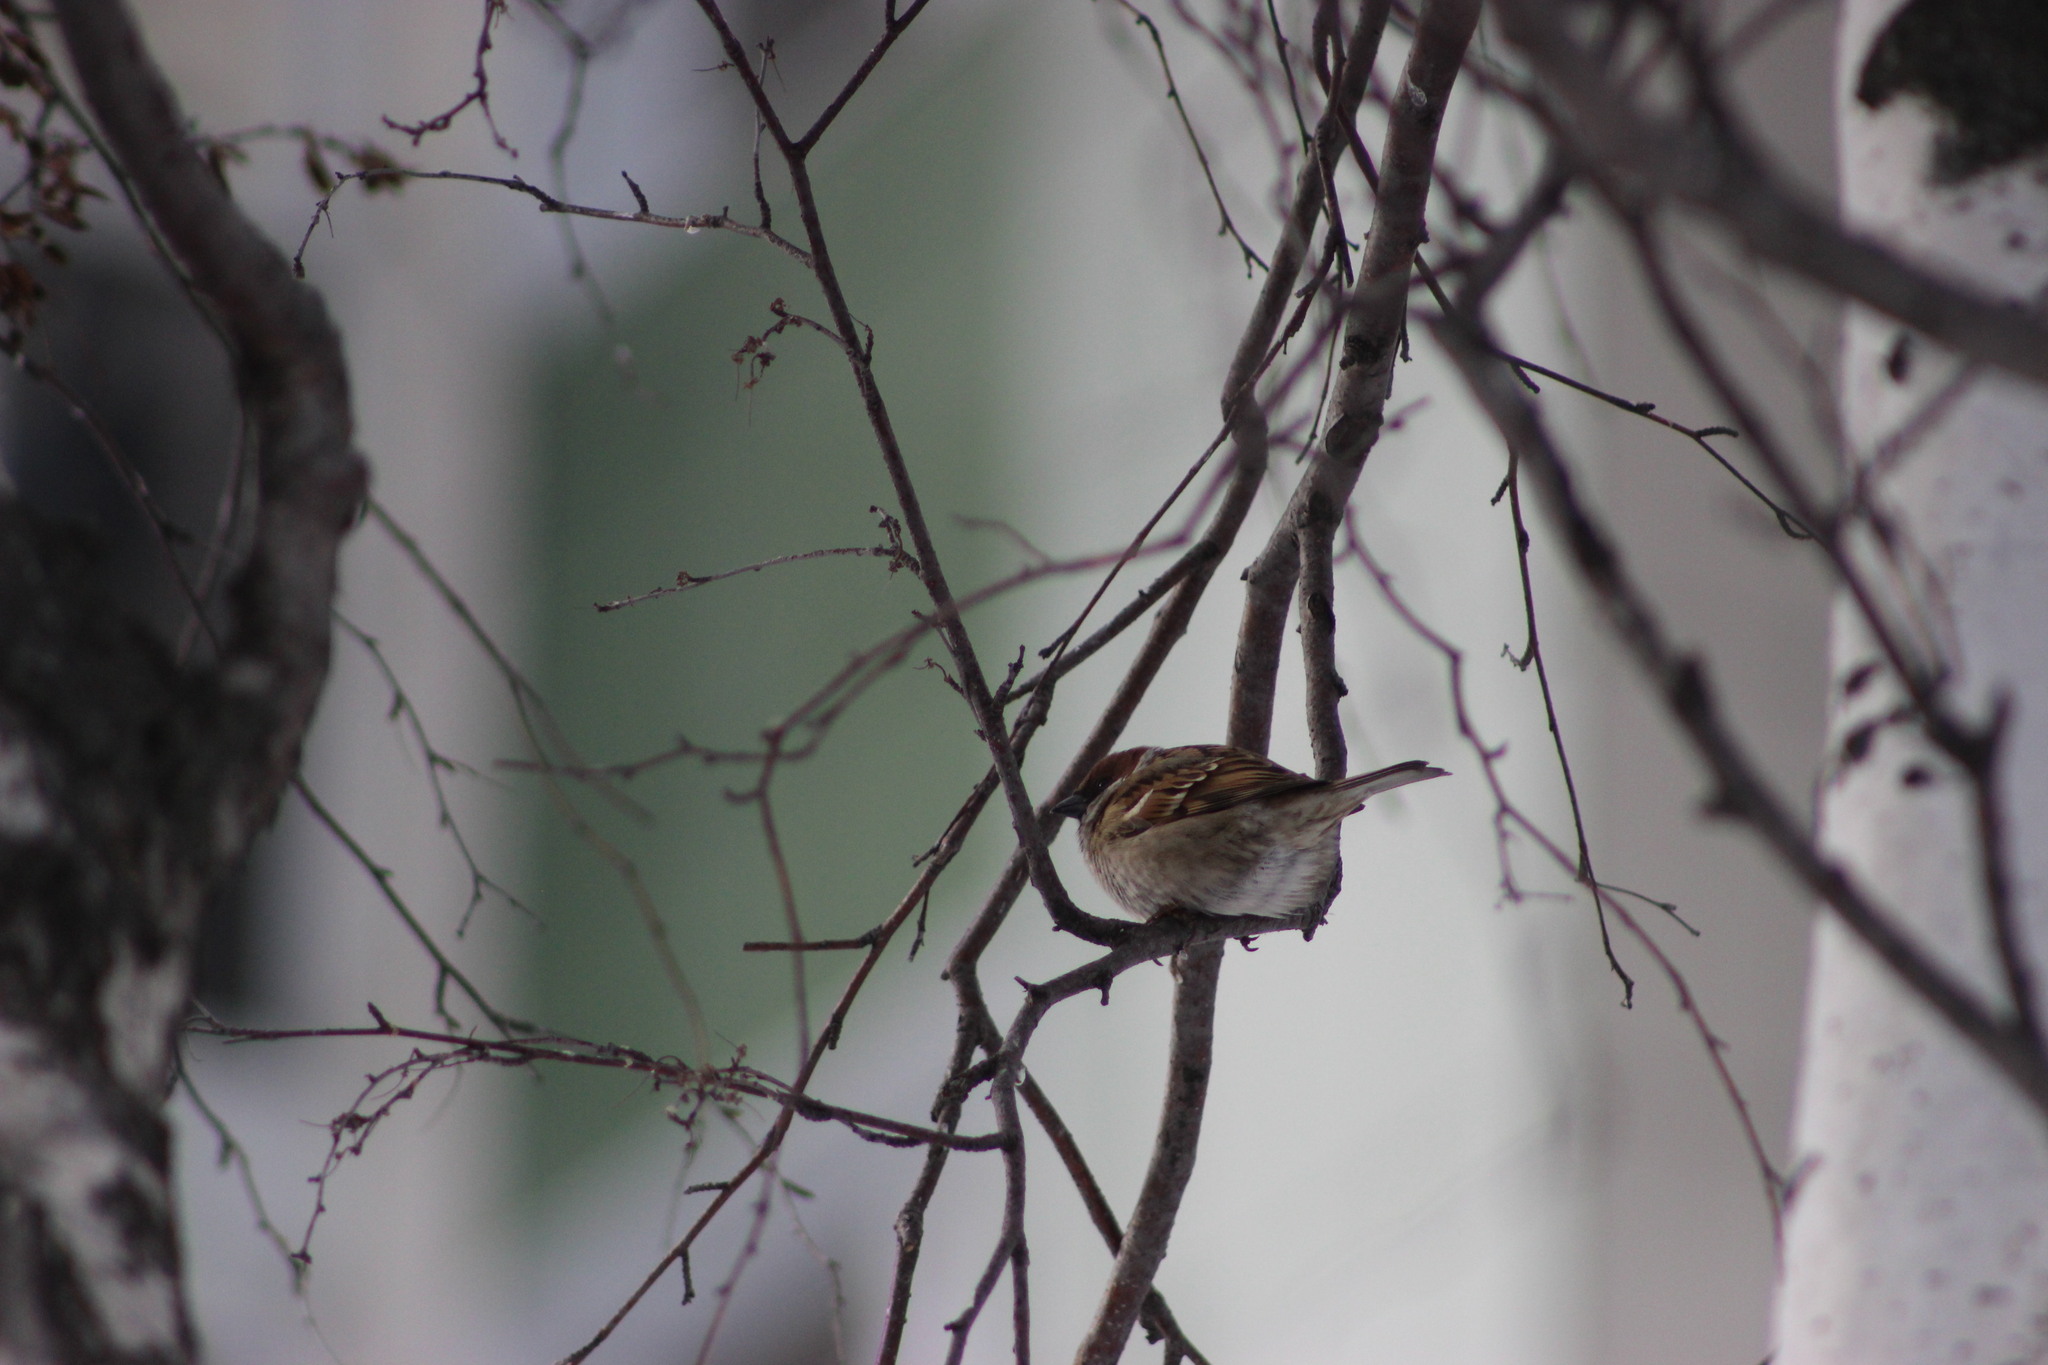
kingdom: Animalia
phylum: Chordata
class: Aves
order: Passeriformes
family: Passeridae
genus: Passer
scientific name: Passer montanus
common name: Eurasian tree sparrow
